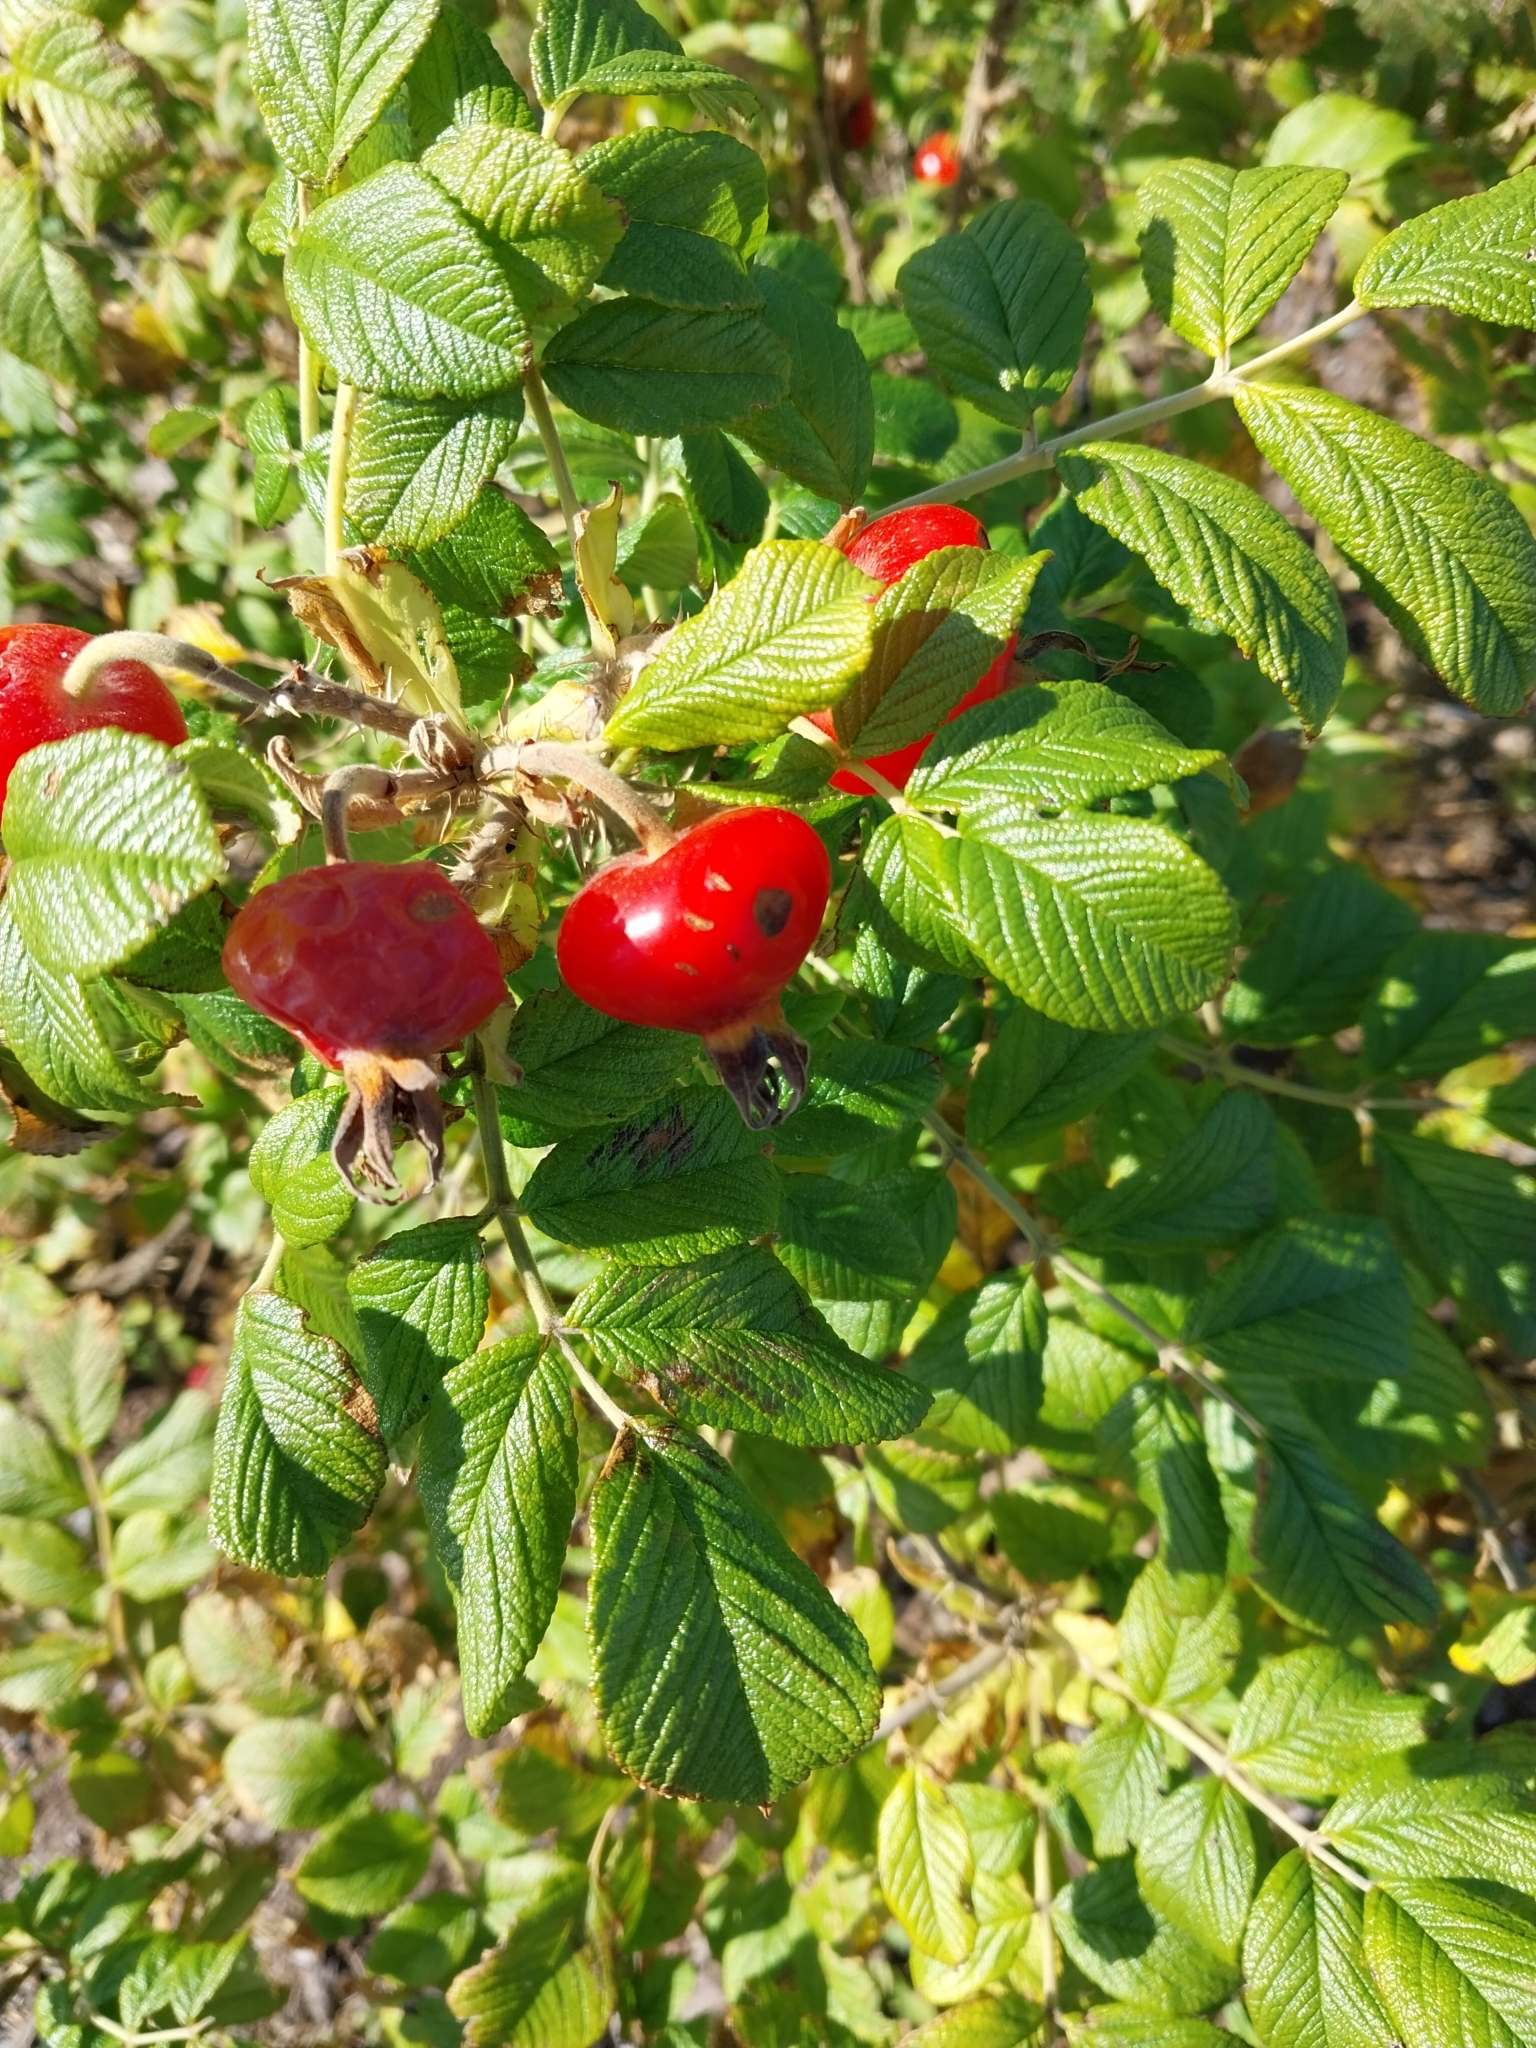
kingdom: Plantae
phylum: Tracheophyta
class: Magnoliopsida
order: Rosales
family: Rosaceae
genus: Rosa
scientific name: Rosa rugosa
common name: Japanese rose
